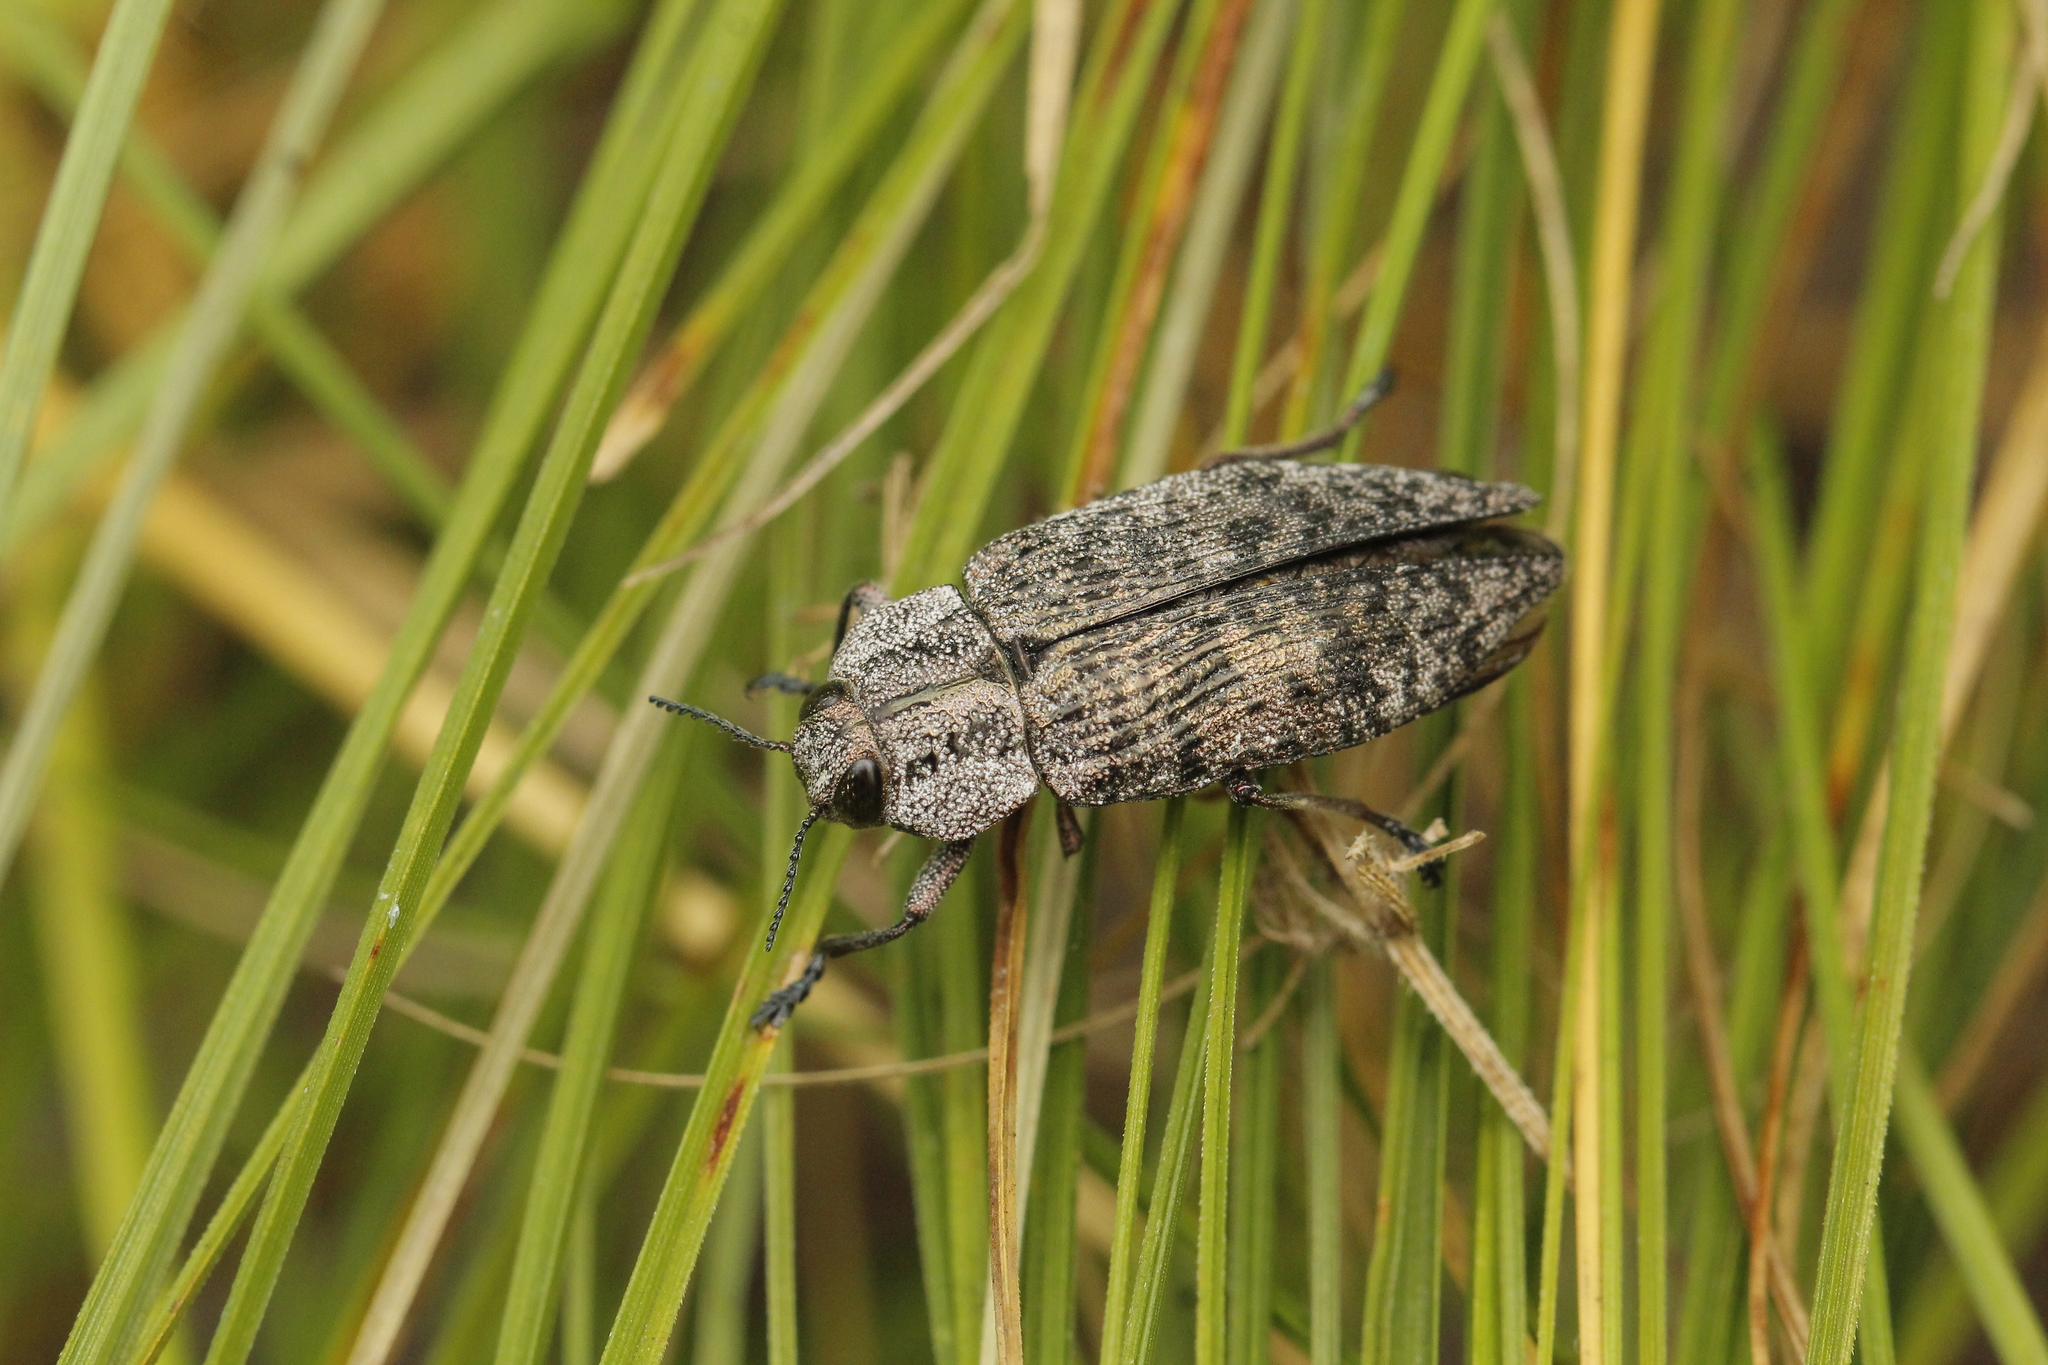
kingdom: Animalia
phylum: Arthropoda
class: Insecta
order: Coleoptera
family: Buprestidae
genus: Poecilonota
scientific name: Poecilonota variolosa
